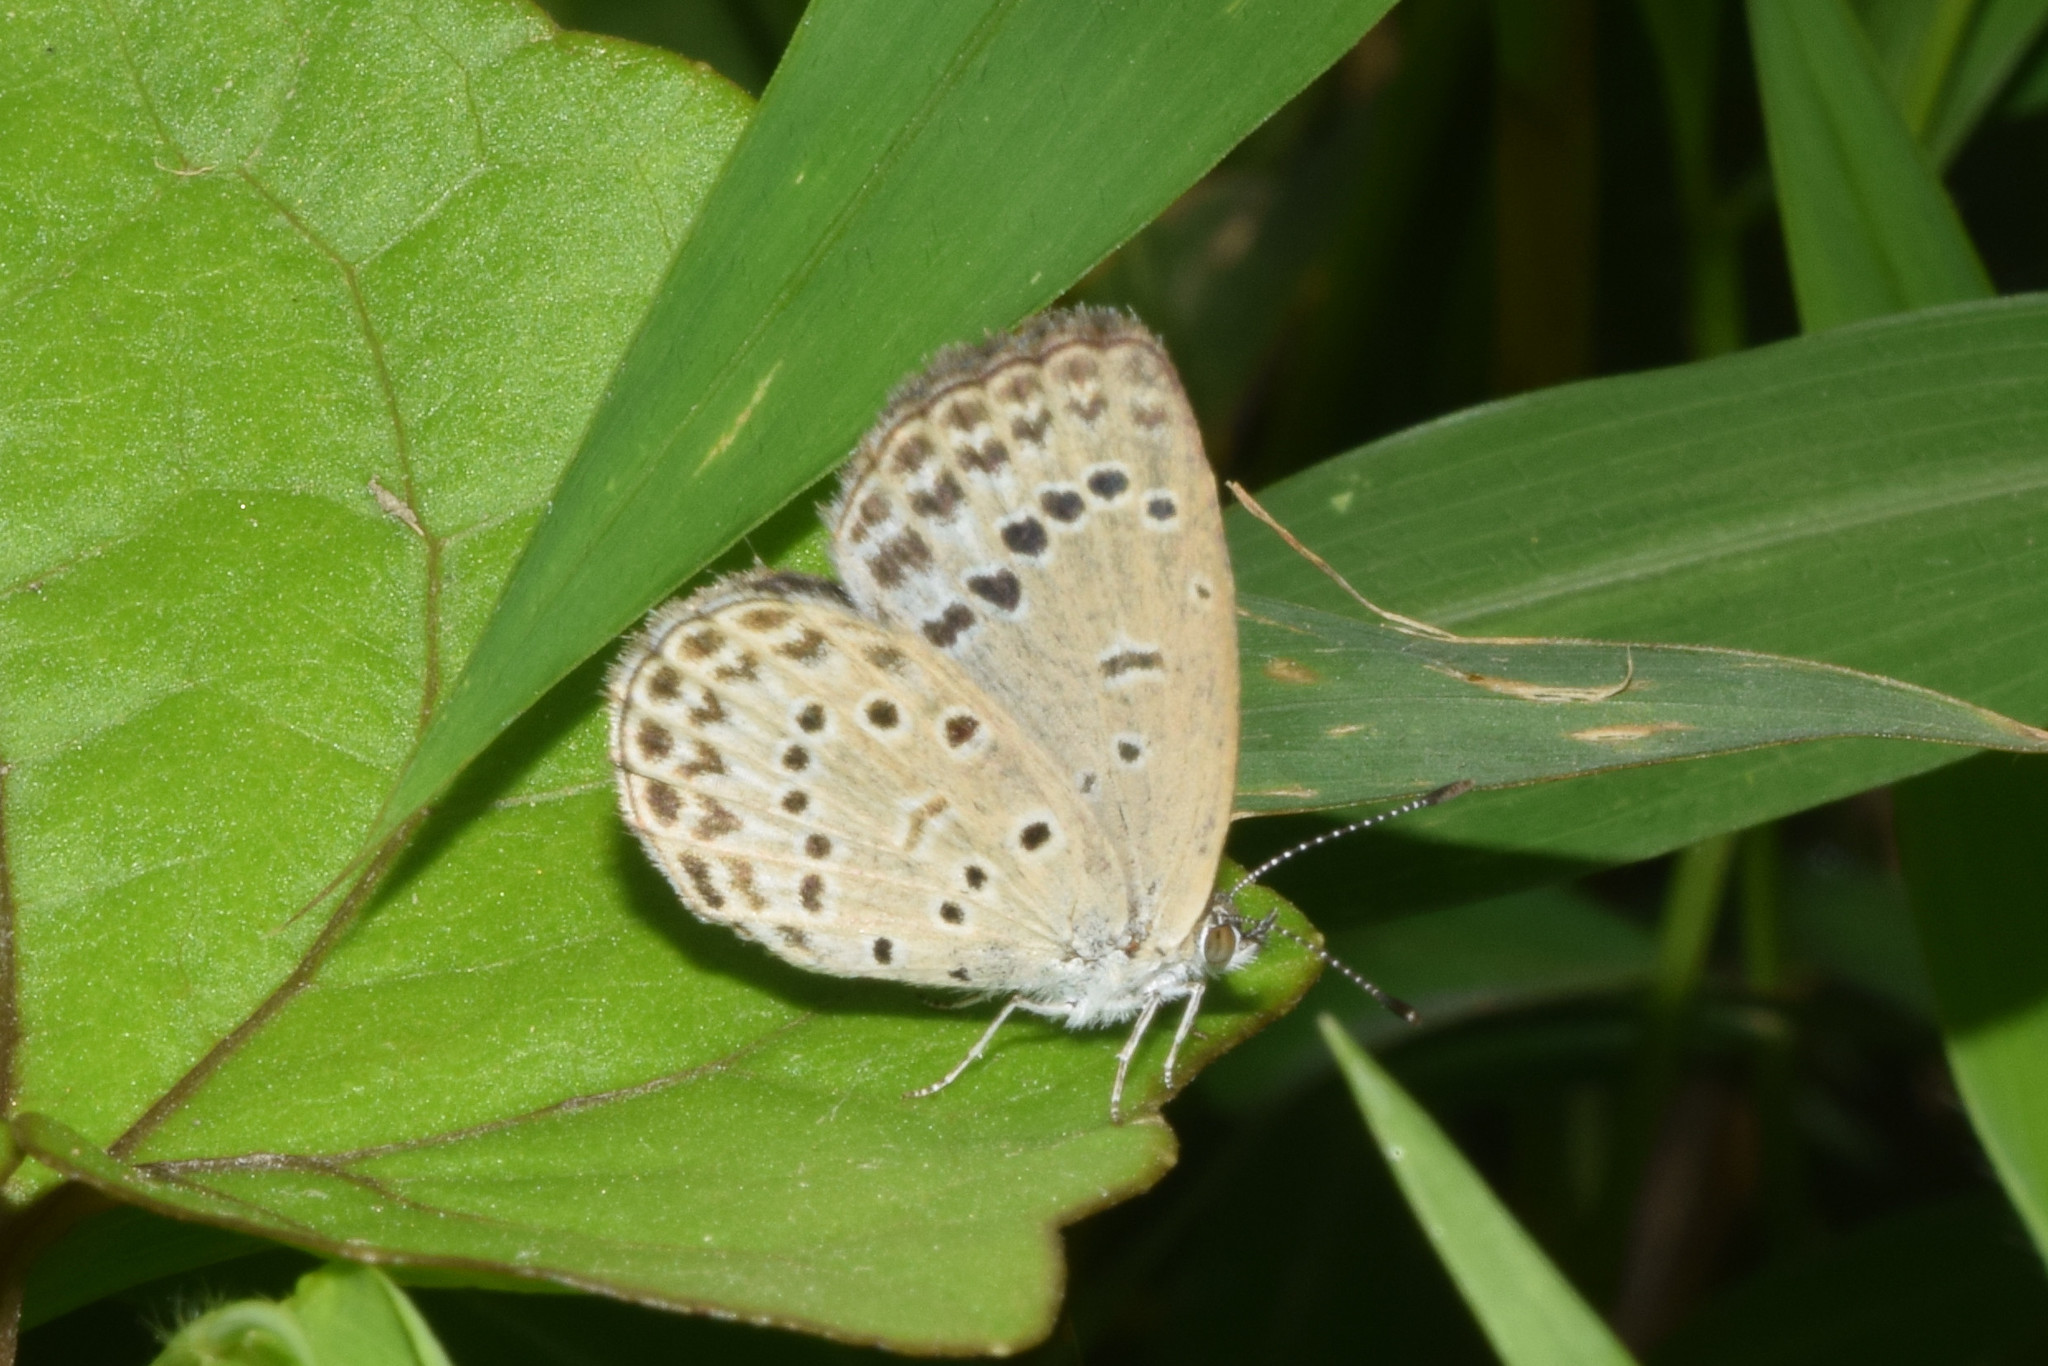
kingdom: Animalia
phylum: Arthropoda
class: Insecta
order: Lepidoptera
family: Lycaenidae
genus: Pseudozizeeria
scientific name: Pseudozizeeria maha
